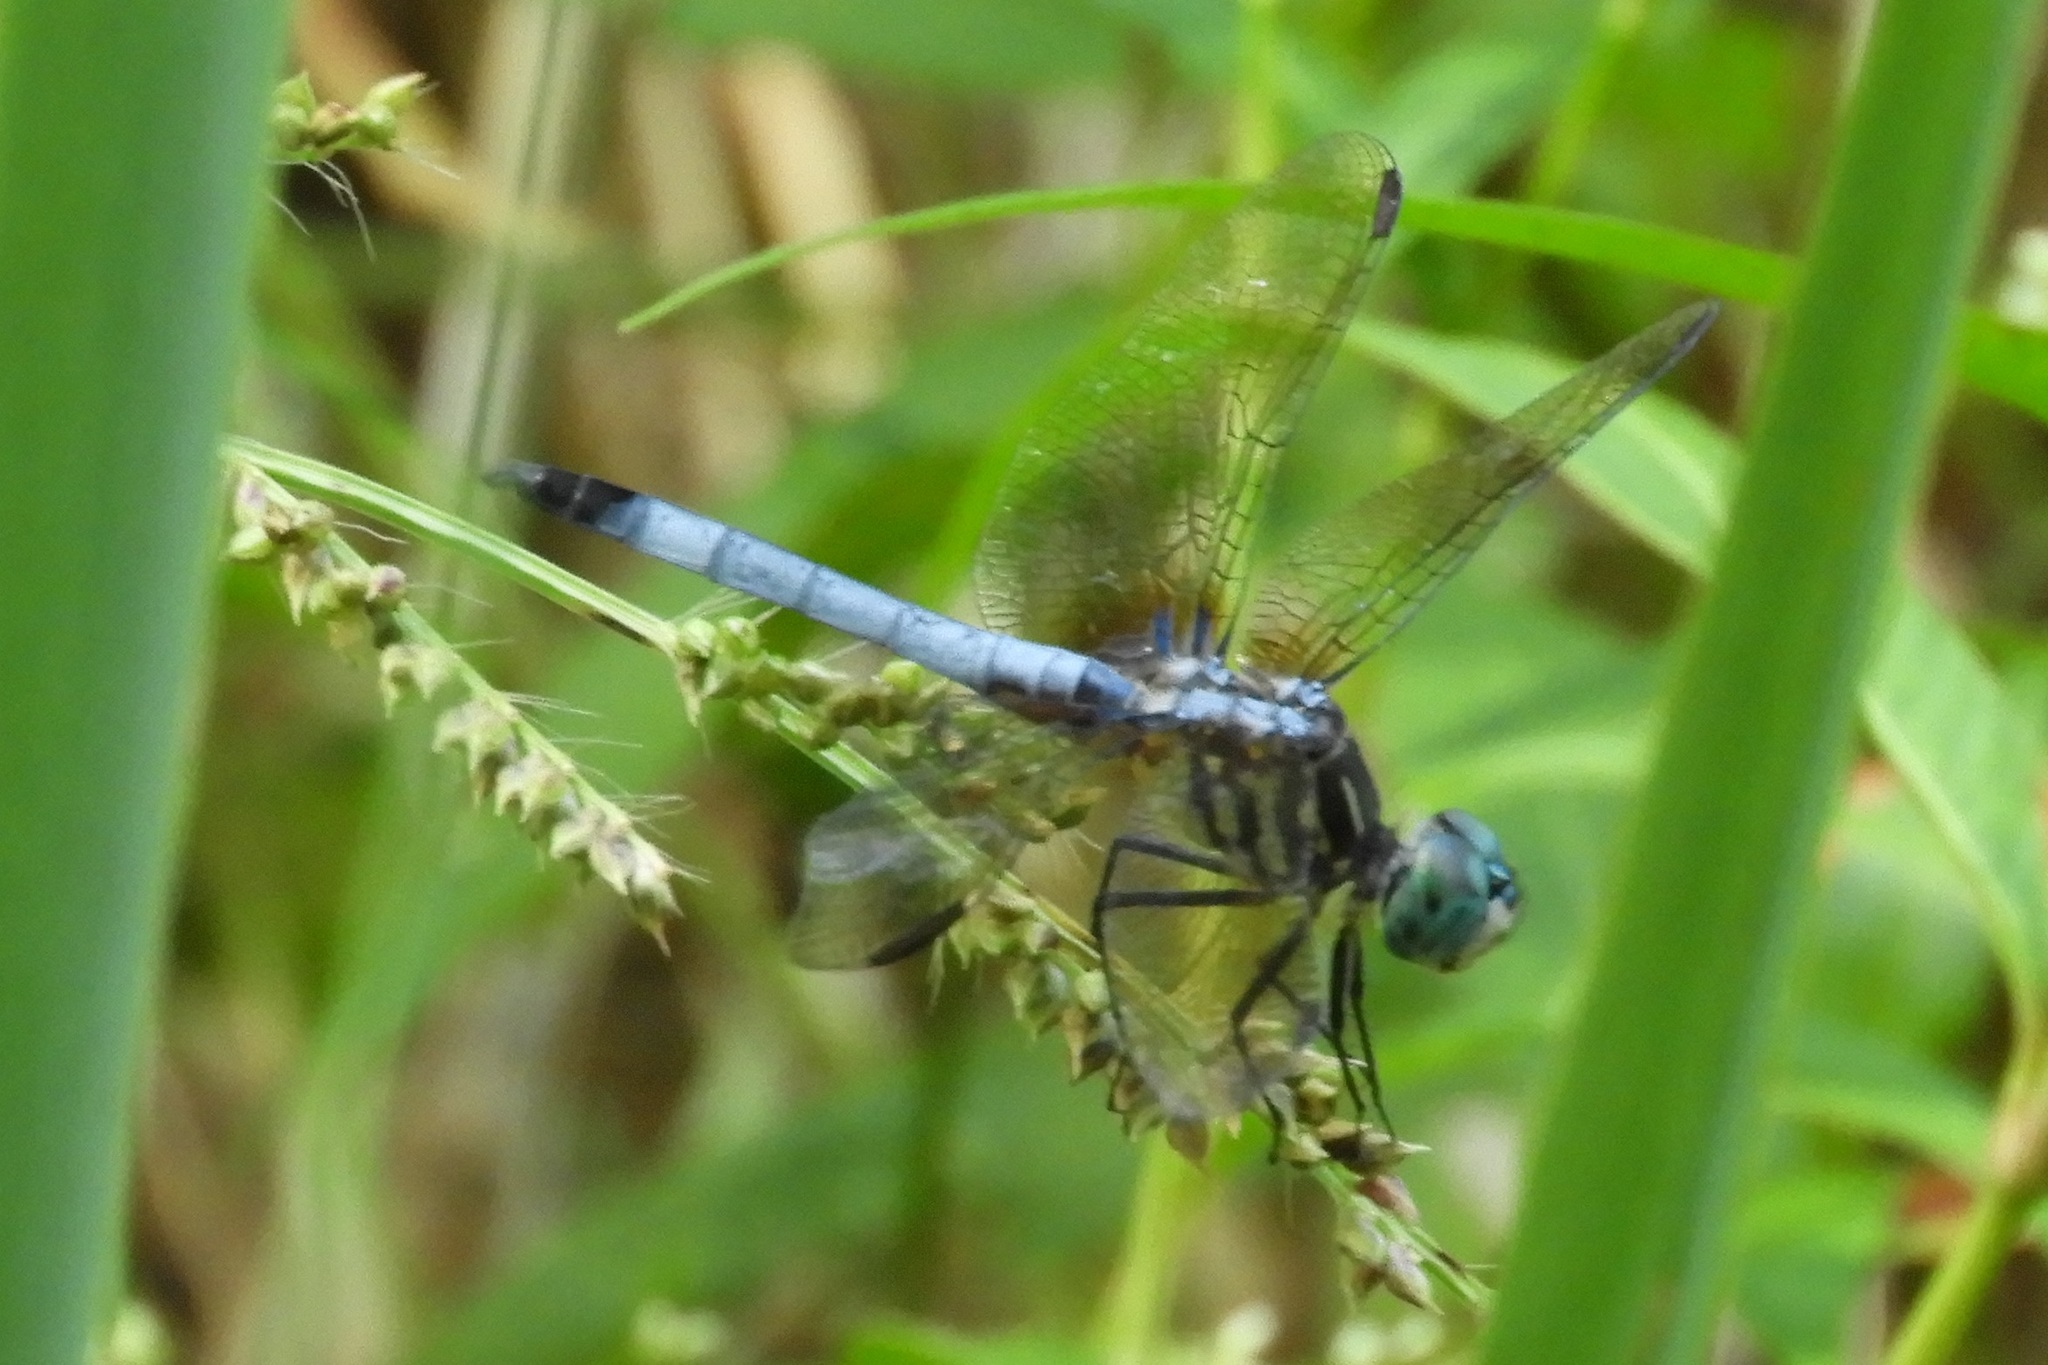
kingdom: Animalia
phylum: Arthropoda
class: Insecta
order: Odonata
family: Libellulidae
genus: Pachydiplax
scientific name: Pachydiplax longipennis
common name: Blue dasher
